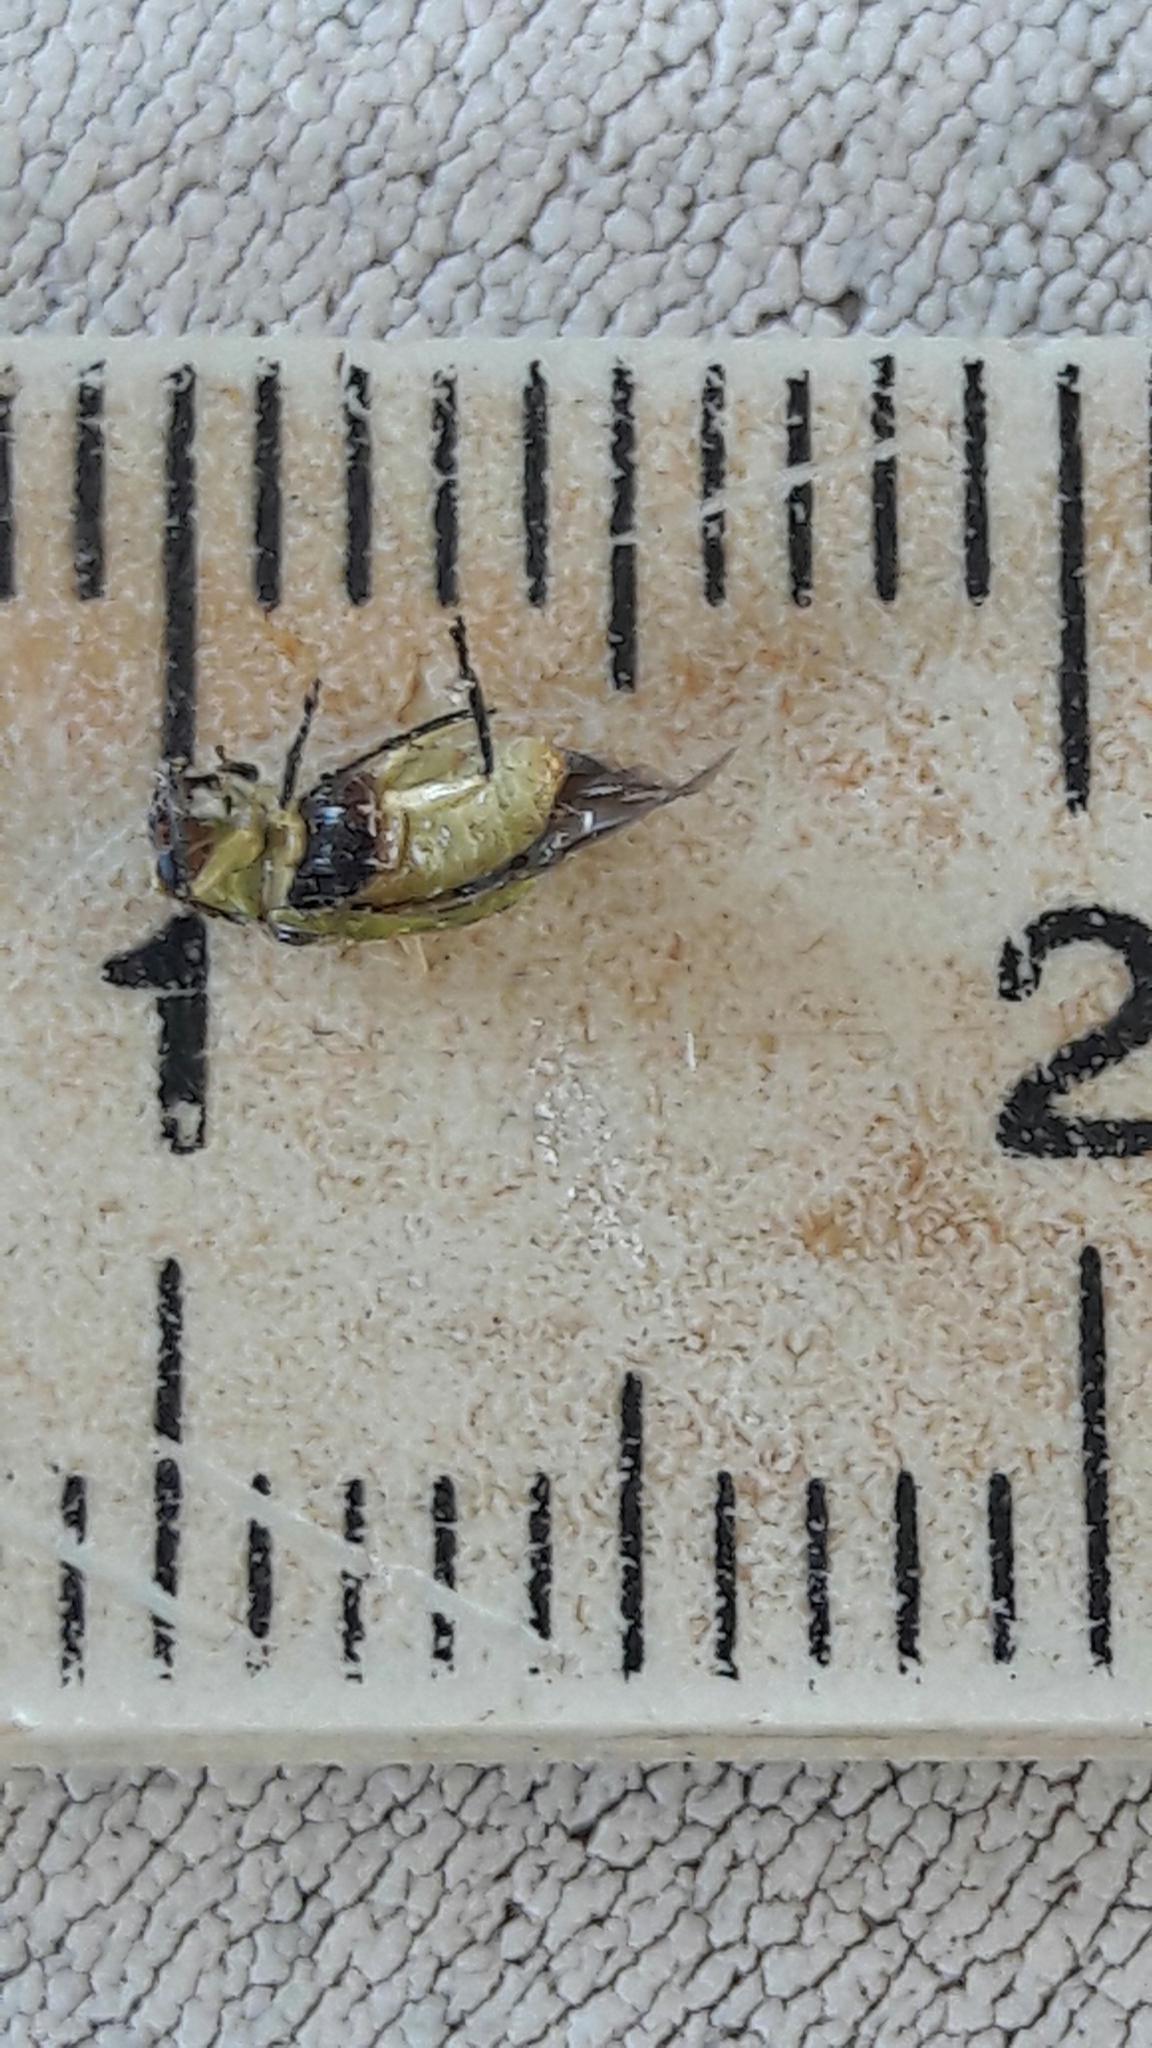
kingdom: Animalia
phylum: Arthropoda
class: Insecta
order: Coleoptera
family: Chrysomelidae
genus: Diabrotica
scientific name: Diabrotica speciosa
